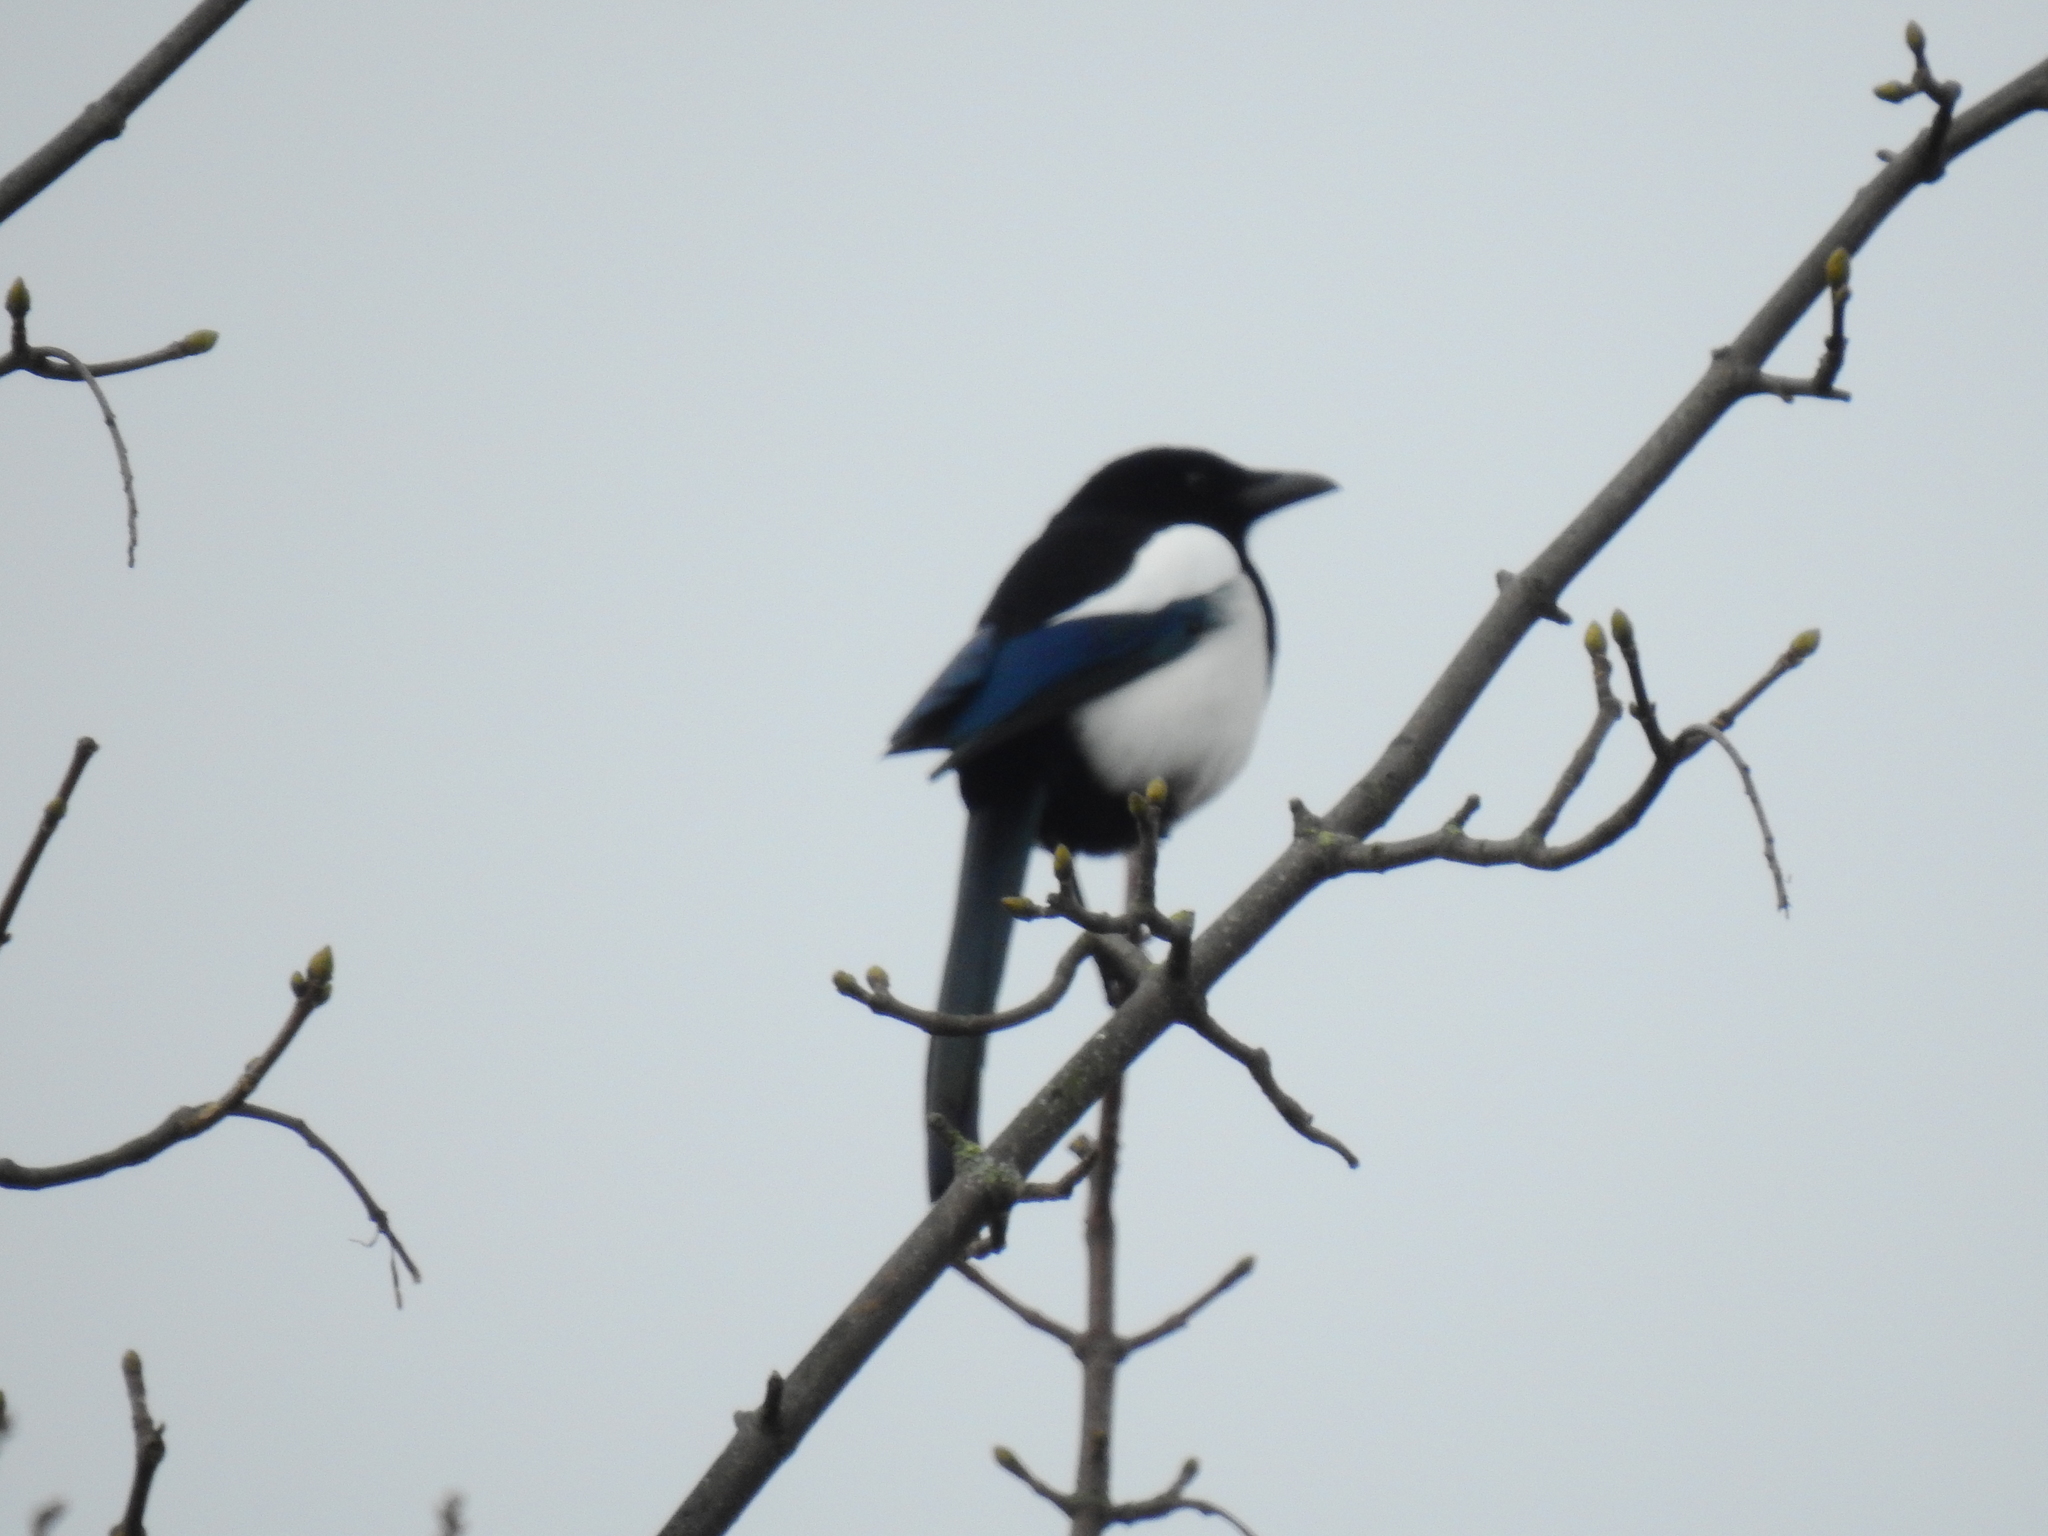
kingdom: Animalia
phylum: Chordata
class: Aves
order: Passeriformes
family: Corvidae
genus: Pica
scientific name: Pica pica
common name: Eurasian magpie
